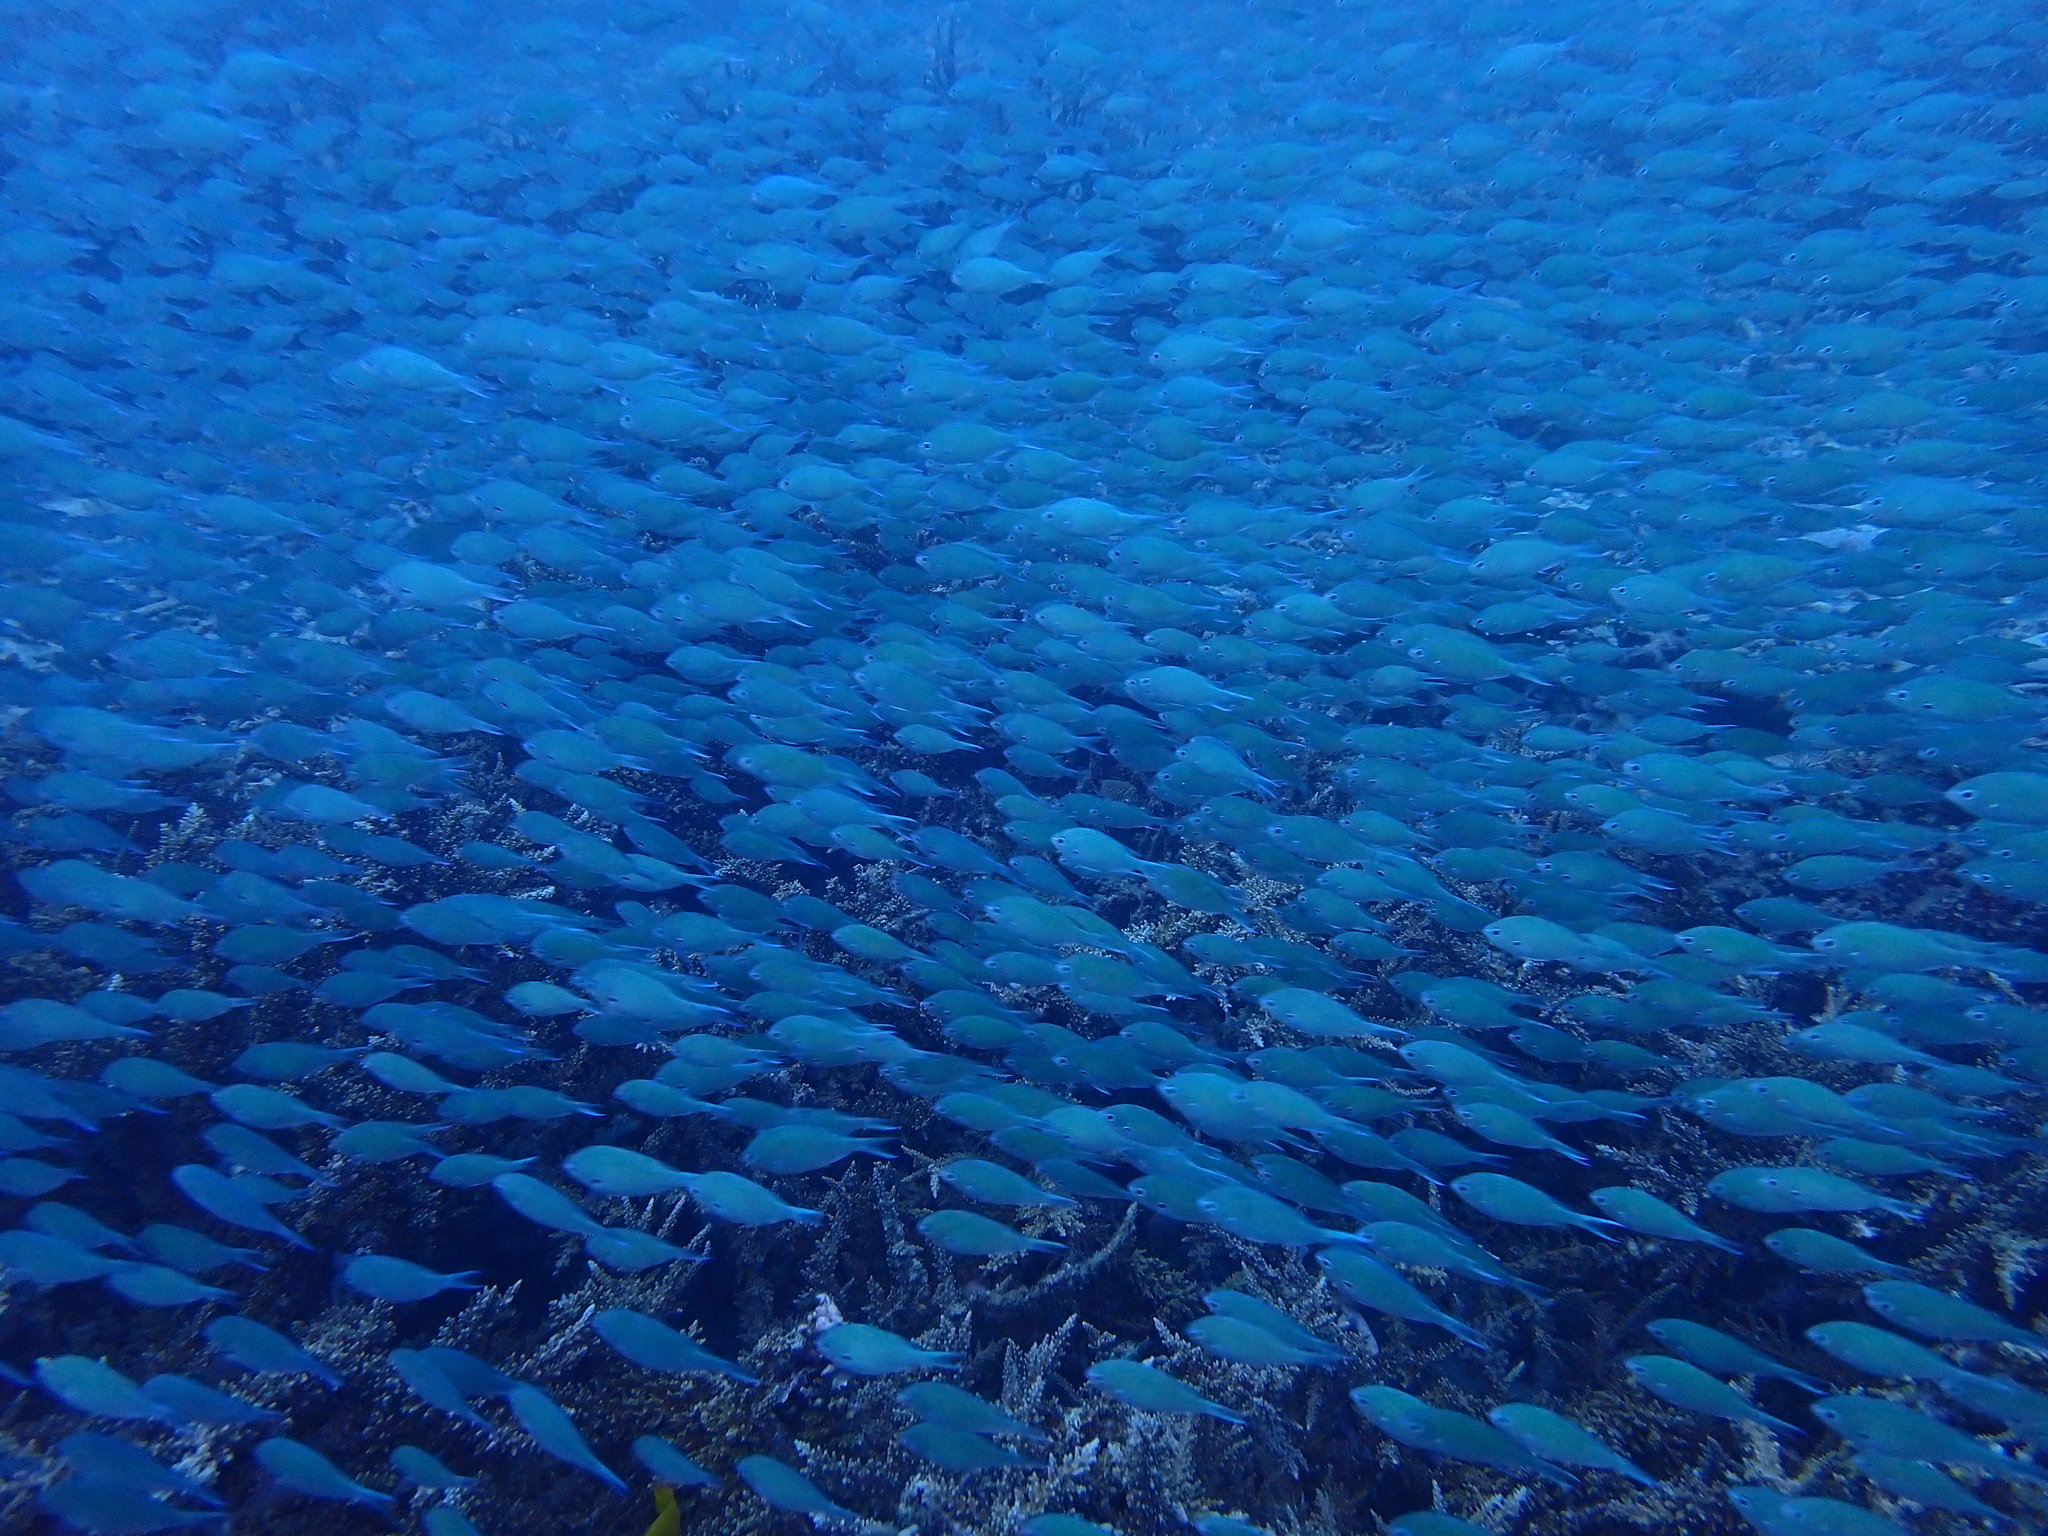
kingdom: Animalia
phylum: Chordata
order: Perciformes
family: Pomacentridae
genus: Chromis
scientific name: Chromis atripectoralis
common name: Black-axil chromis
